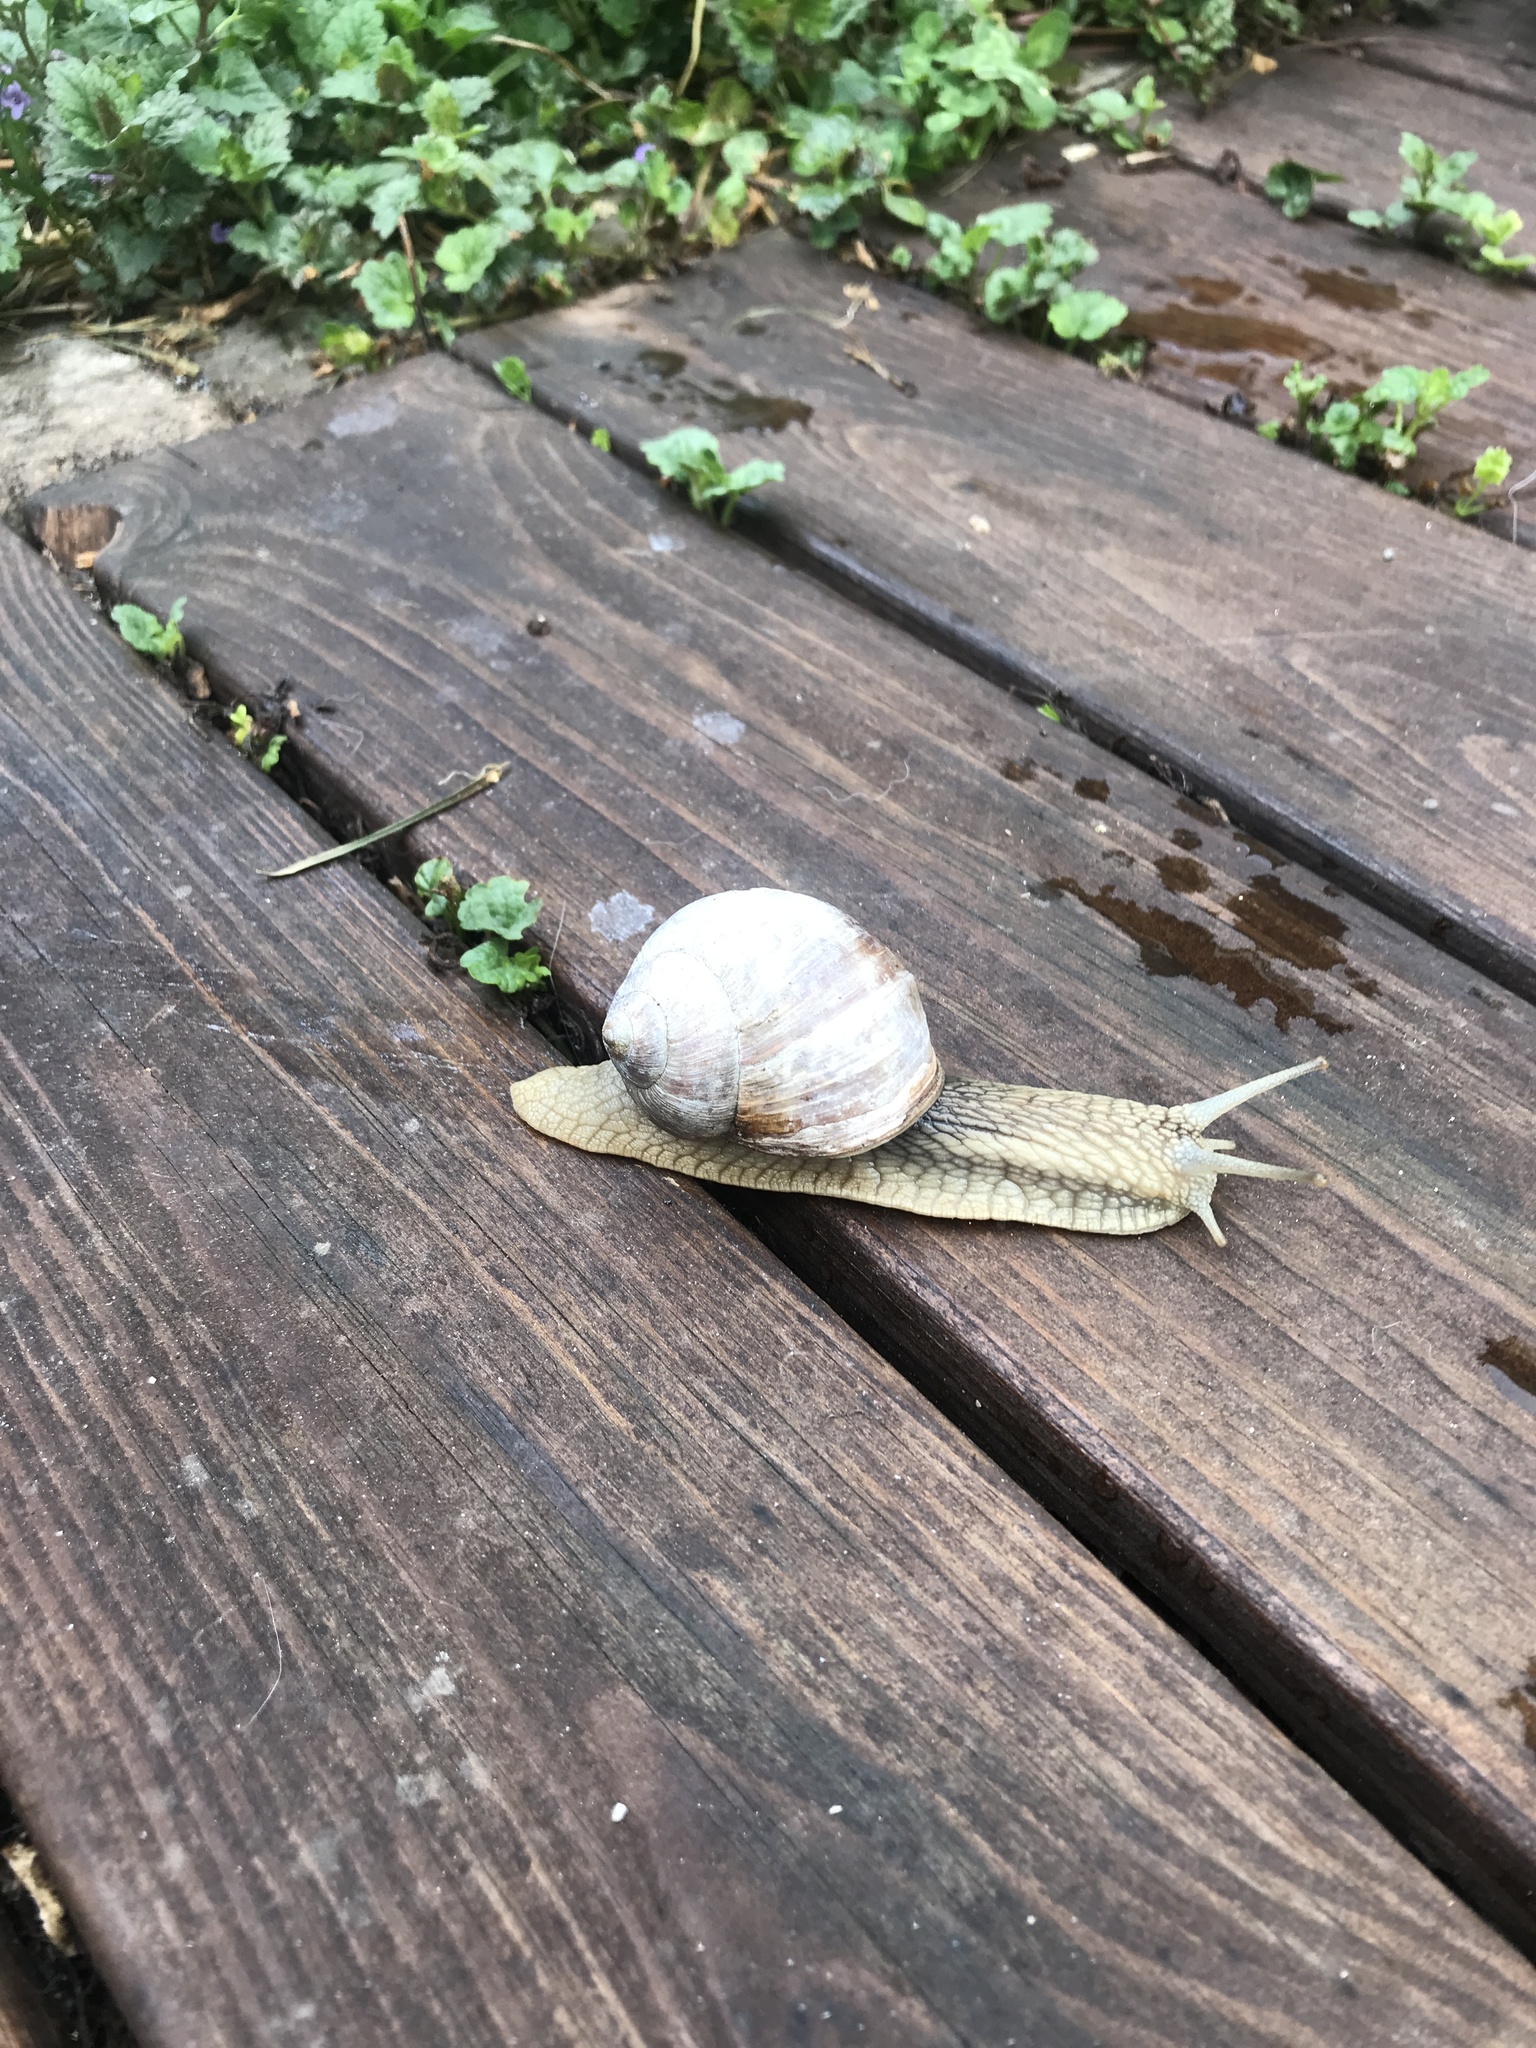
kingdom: Animalia
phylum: Mollusca
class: Gastropoda
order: Stylommatophora
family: Helicidae
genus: Helix
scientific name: Helix pomatia
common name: Roman snail
